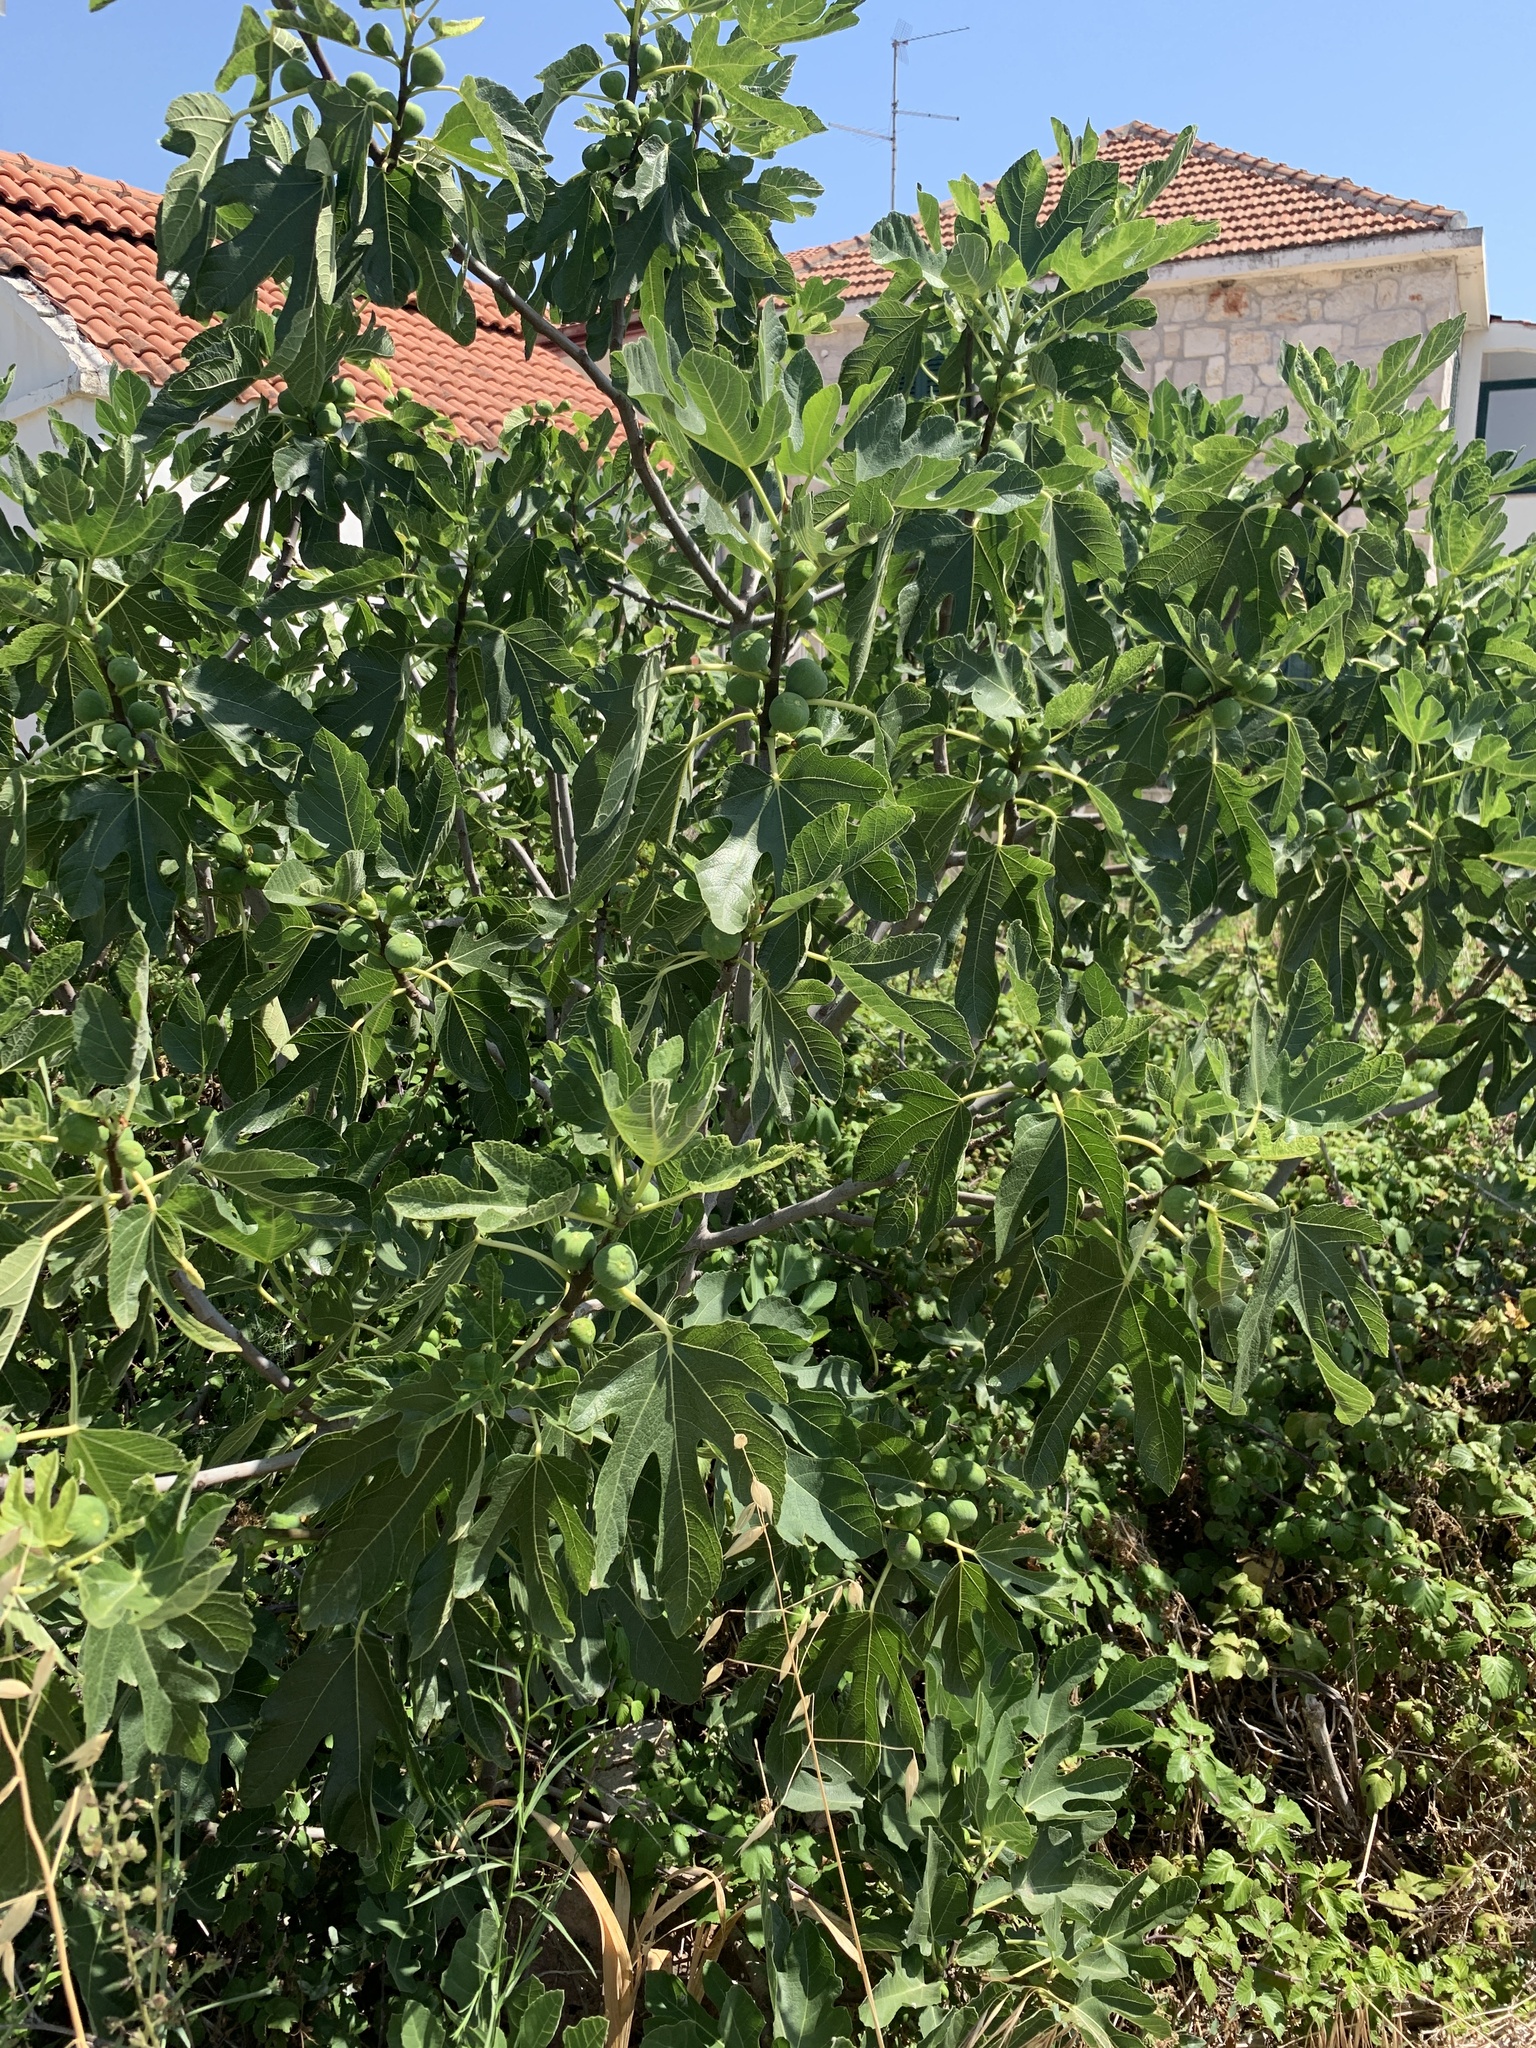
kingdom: Plantae
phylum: Tracheophyta
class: Magnoliopsida
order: Rosales
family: Moraceae
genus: Ficus
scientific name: Ficus carica
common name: Fig
